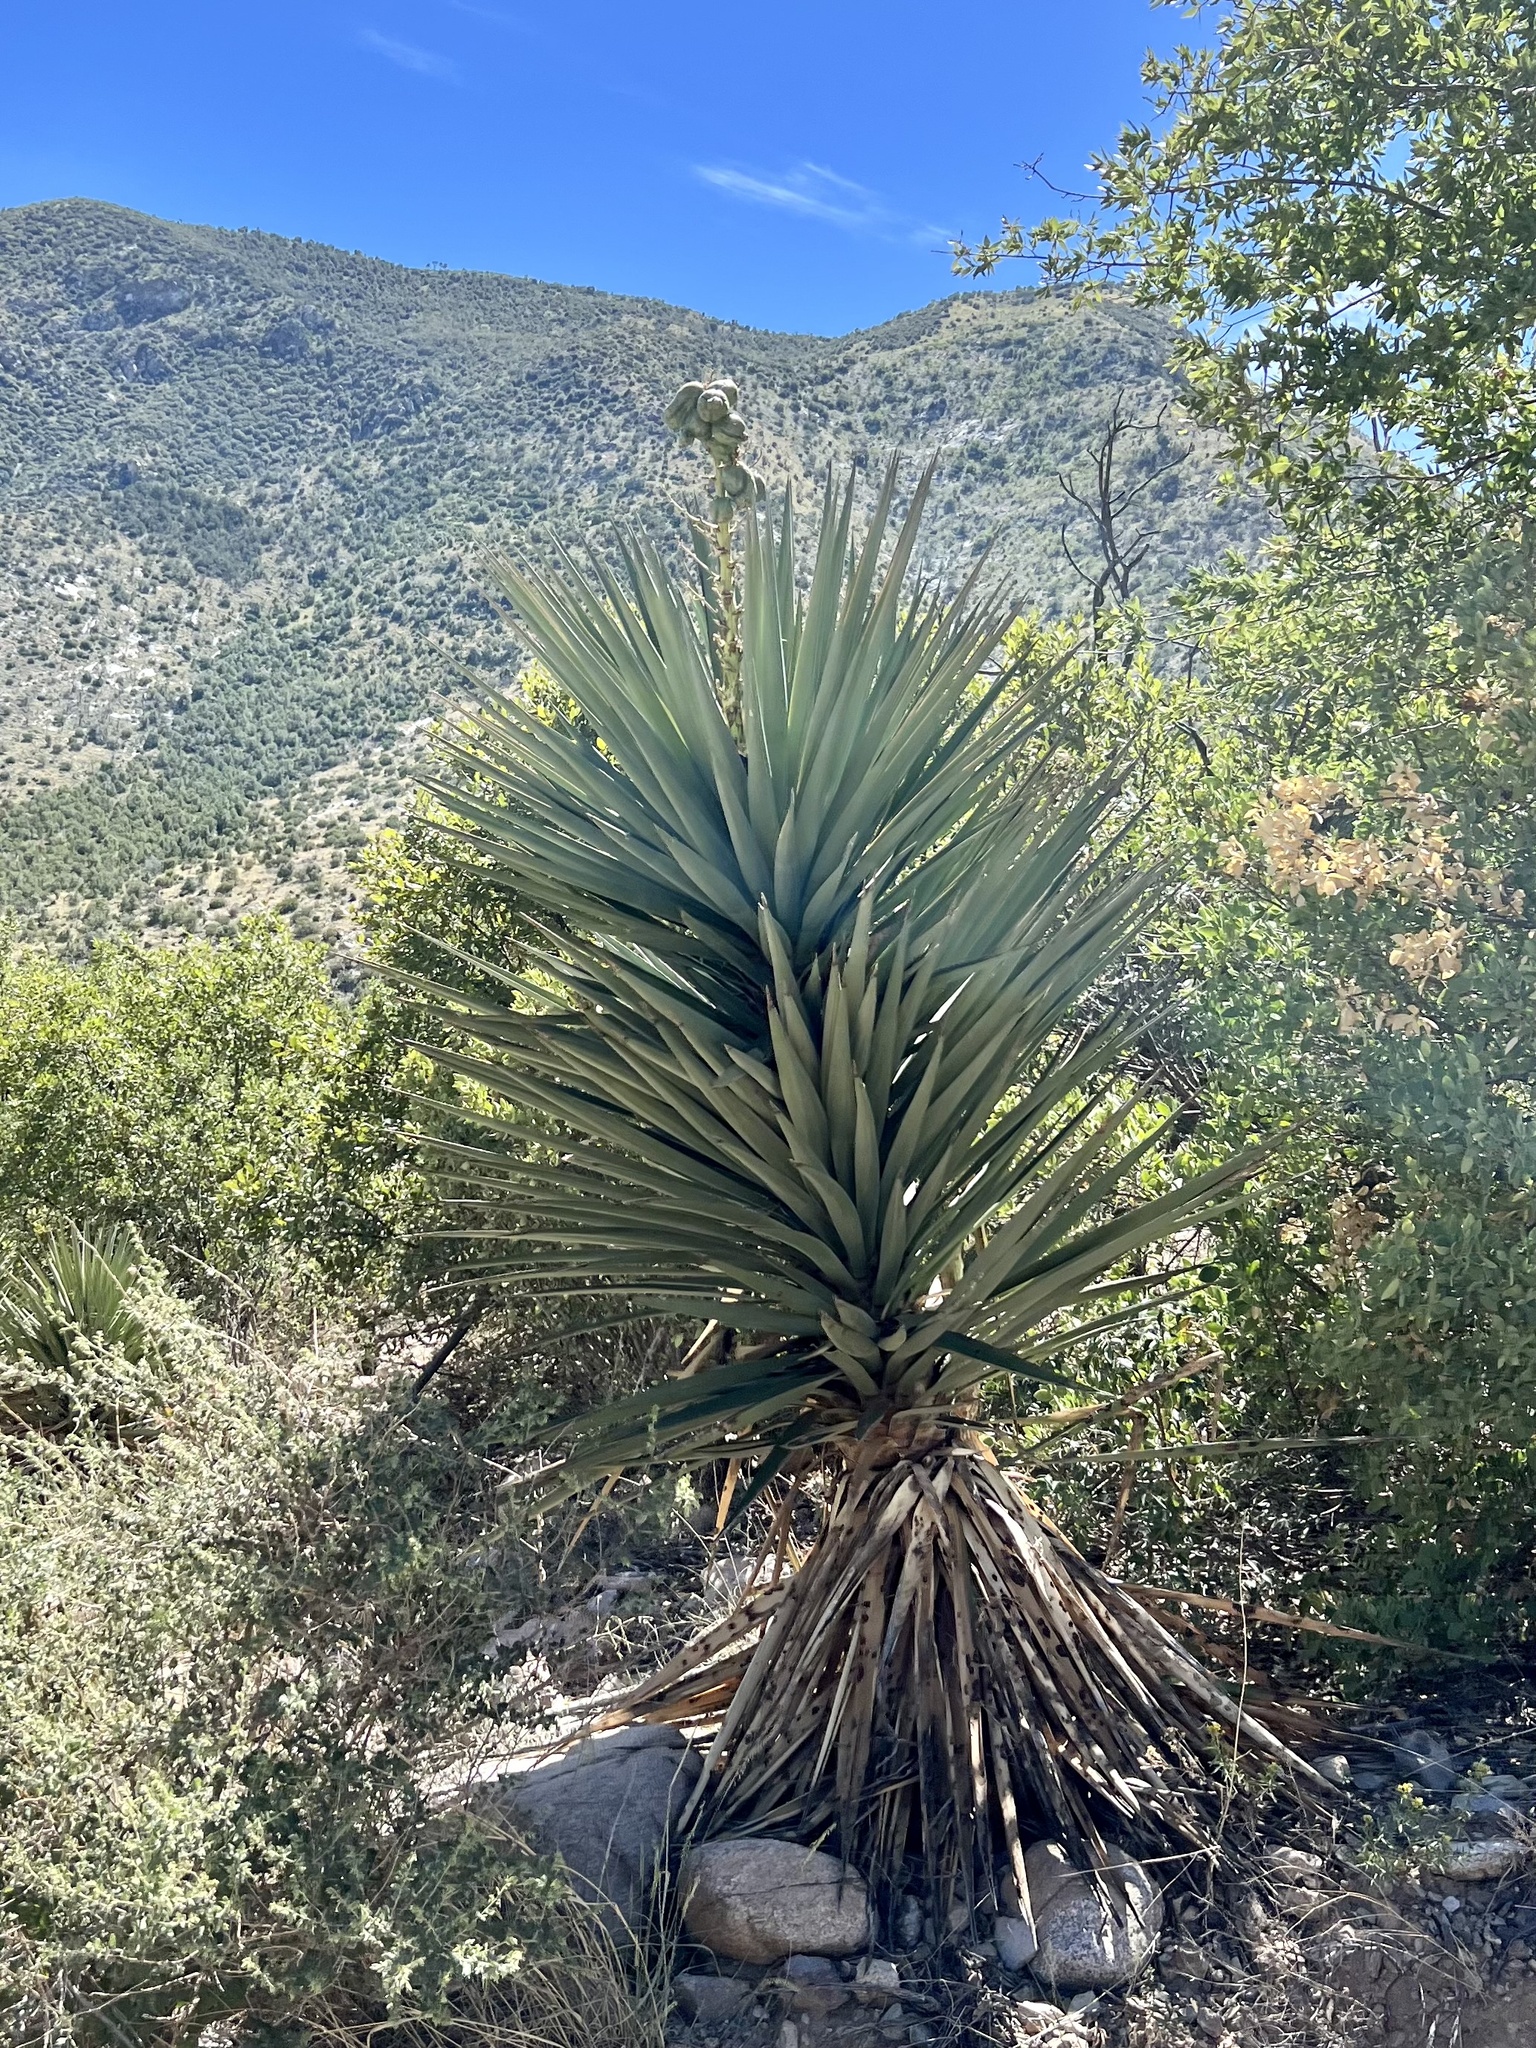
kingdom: Plantae
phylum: Tracheophyta
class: Liliopsida
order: Asparagales
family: Asparagaceae
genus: Yucca
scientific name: Yucca madrensis
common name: Hoary yucca
